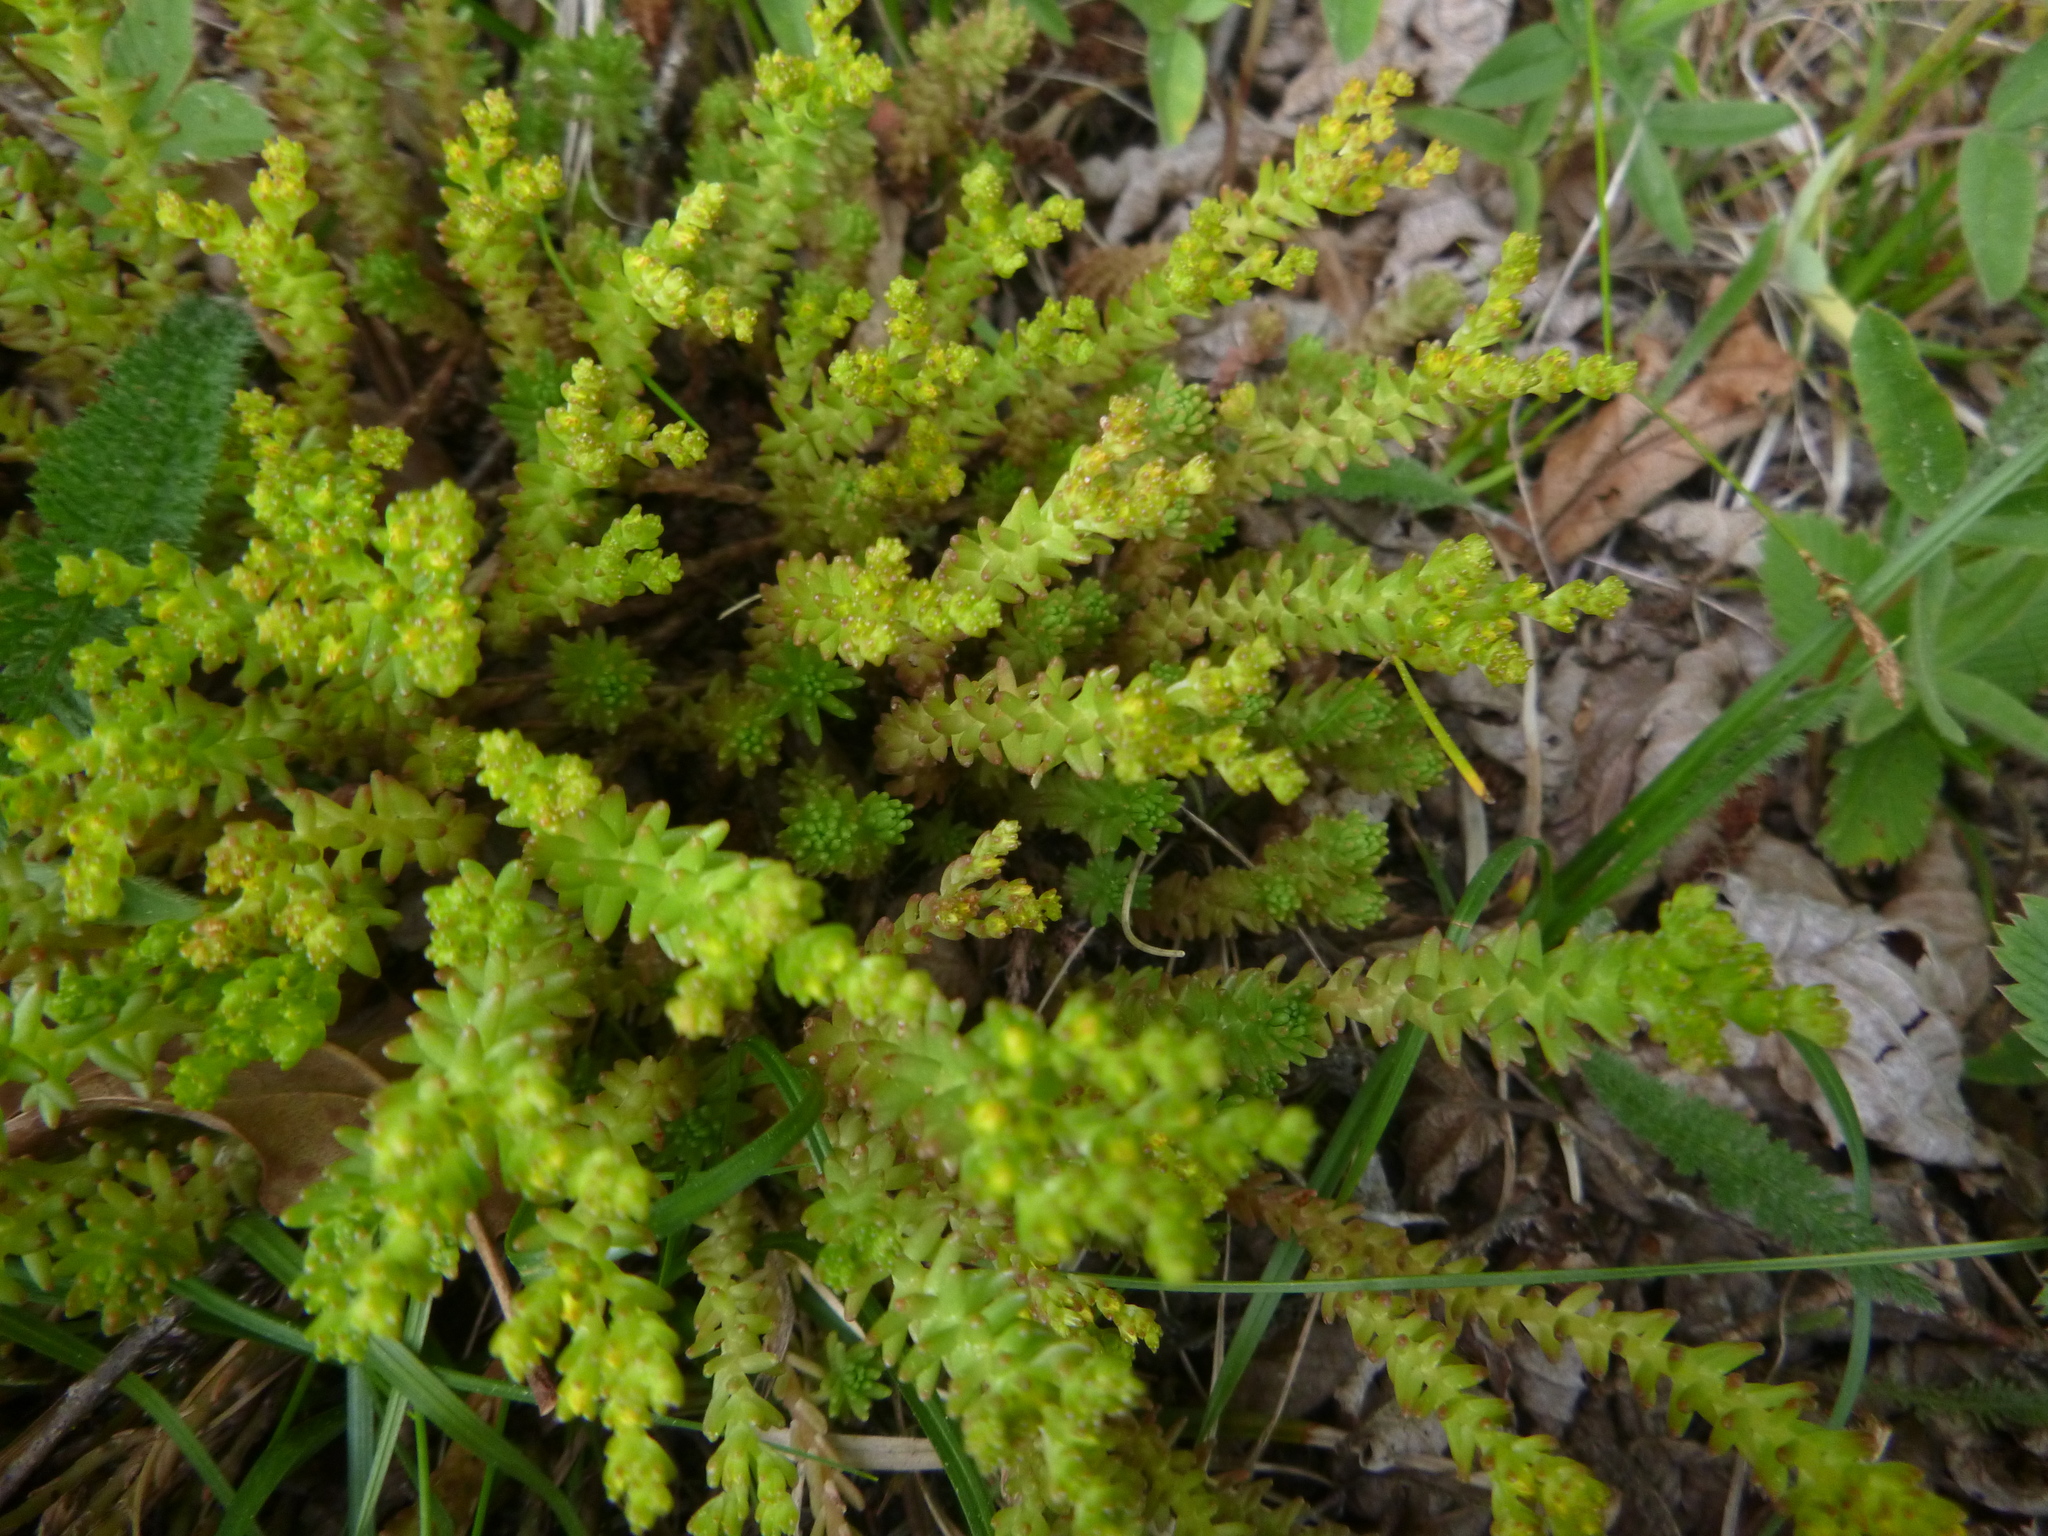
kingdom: Plantae
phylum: Tracheophyta
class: Magnoliopsida
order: Saxifragales
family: Crassulaceae
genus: Sedum
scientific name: Sedum sexangulare
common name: Tasteless stonecrop
